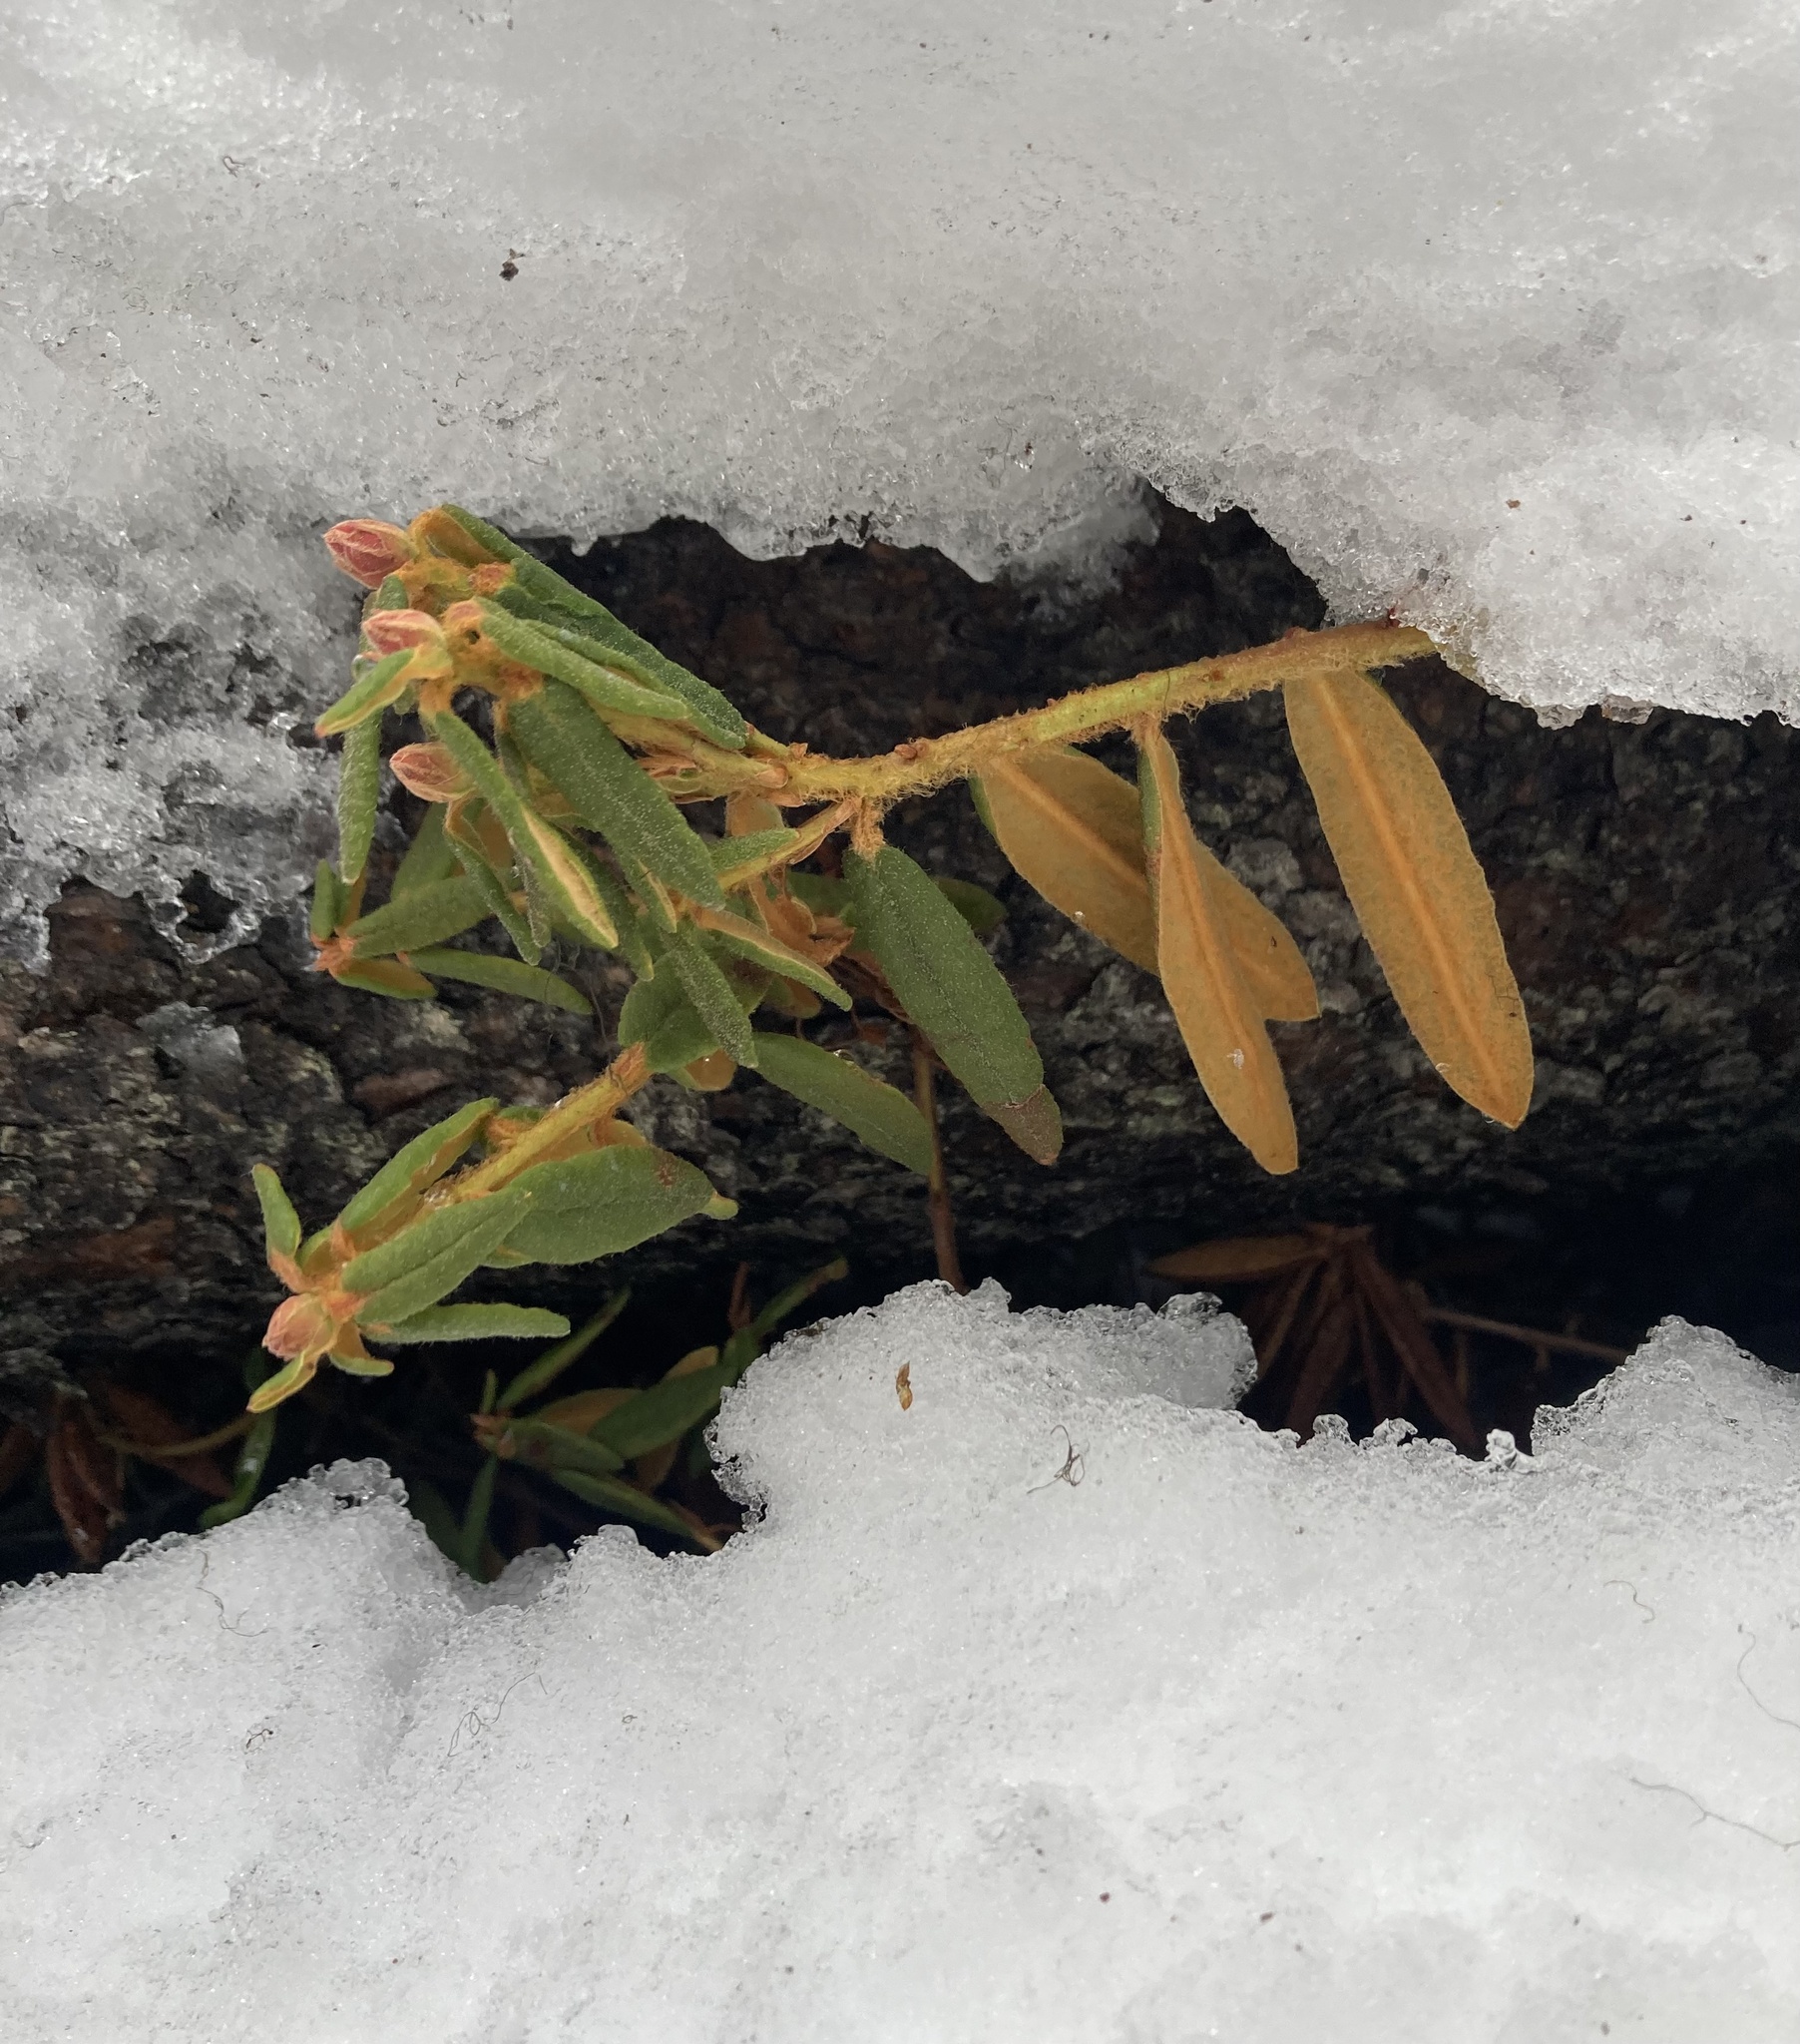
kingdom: Plantae
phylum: Tracheophyta
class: Magnoliopsida
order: Ericales
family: Ericaceae
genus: Rhododendron
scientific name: Rhododendron groenlandicum
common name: Bog labrador tea
